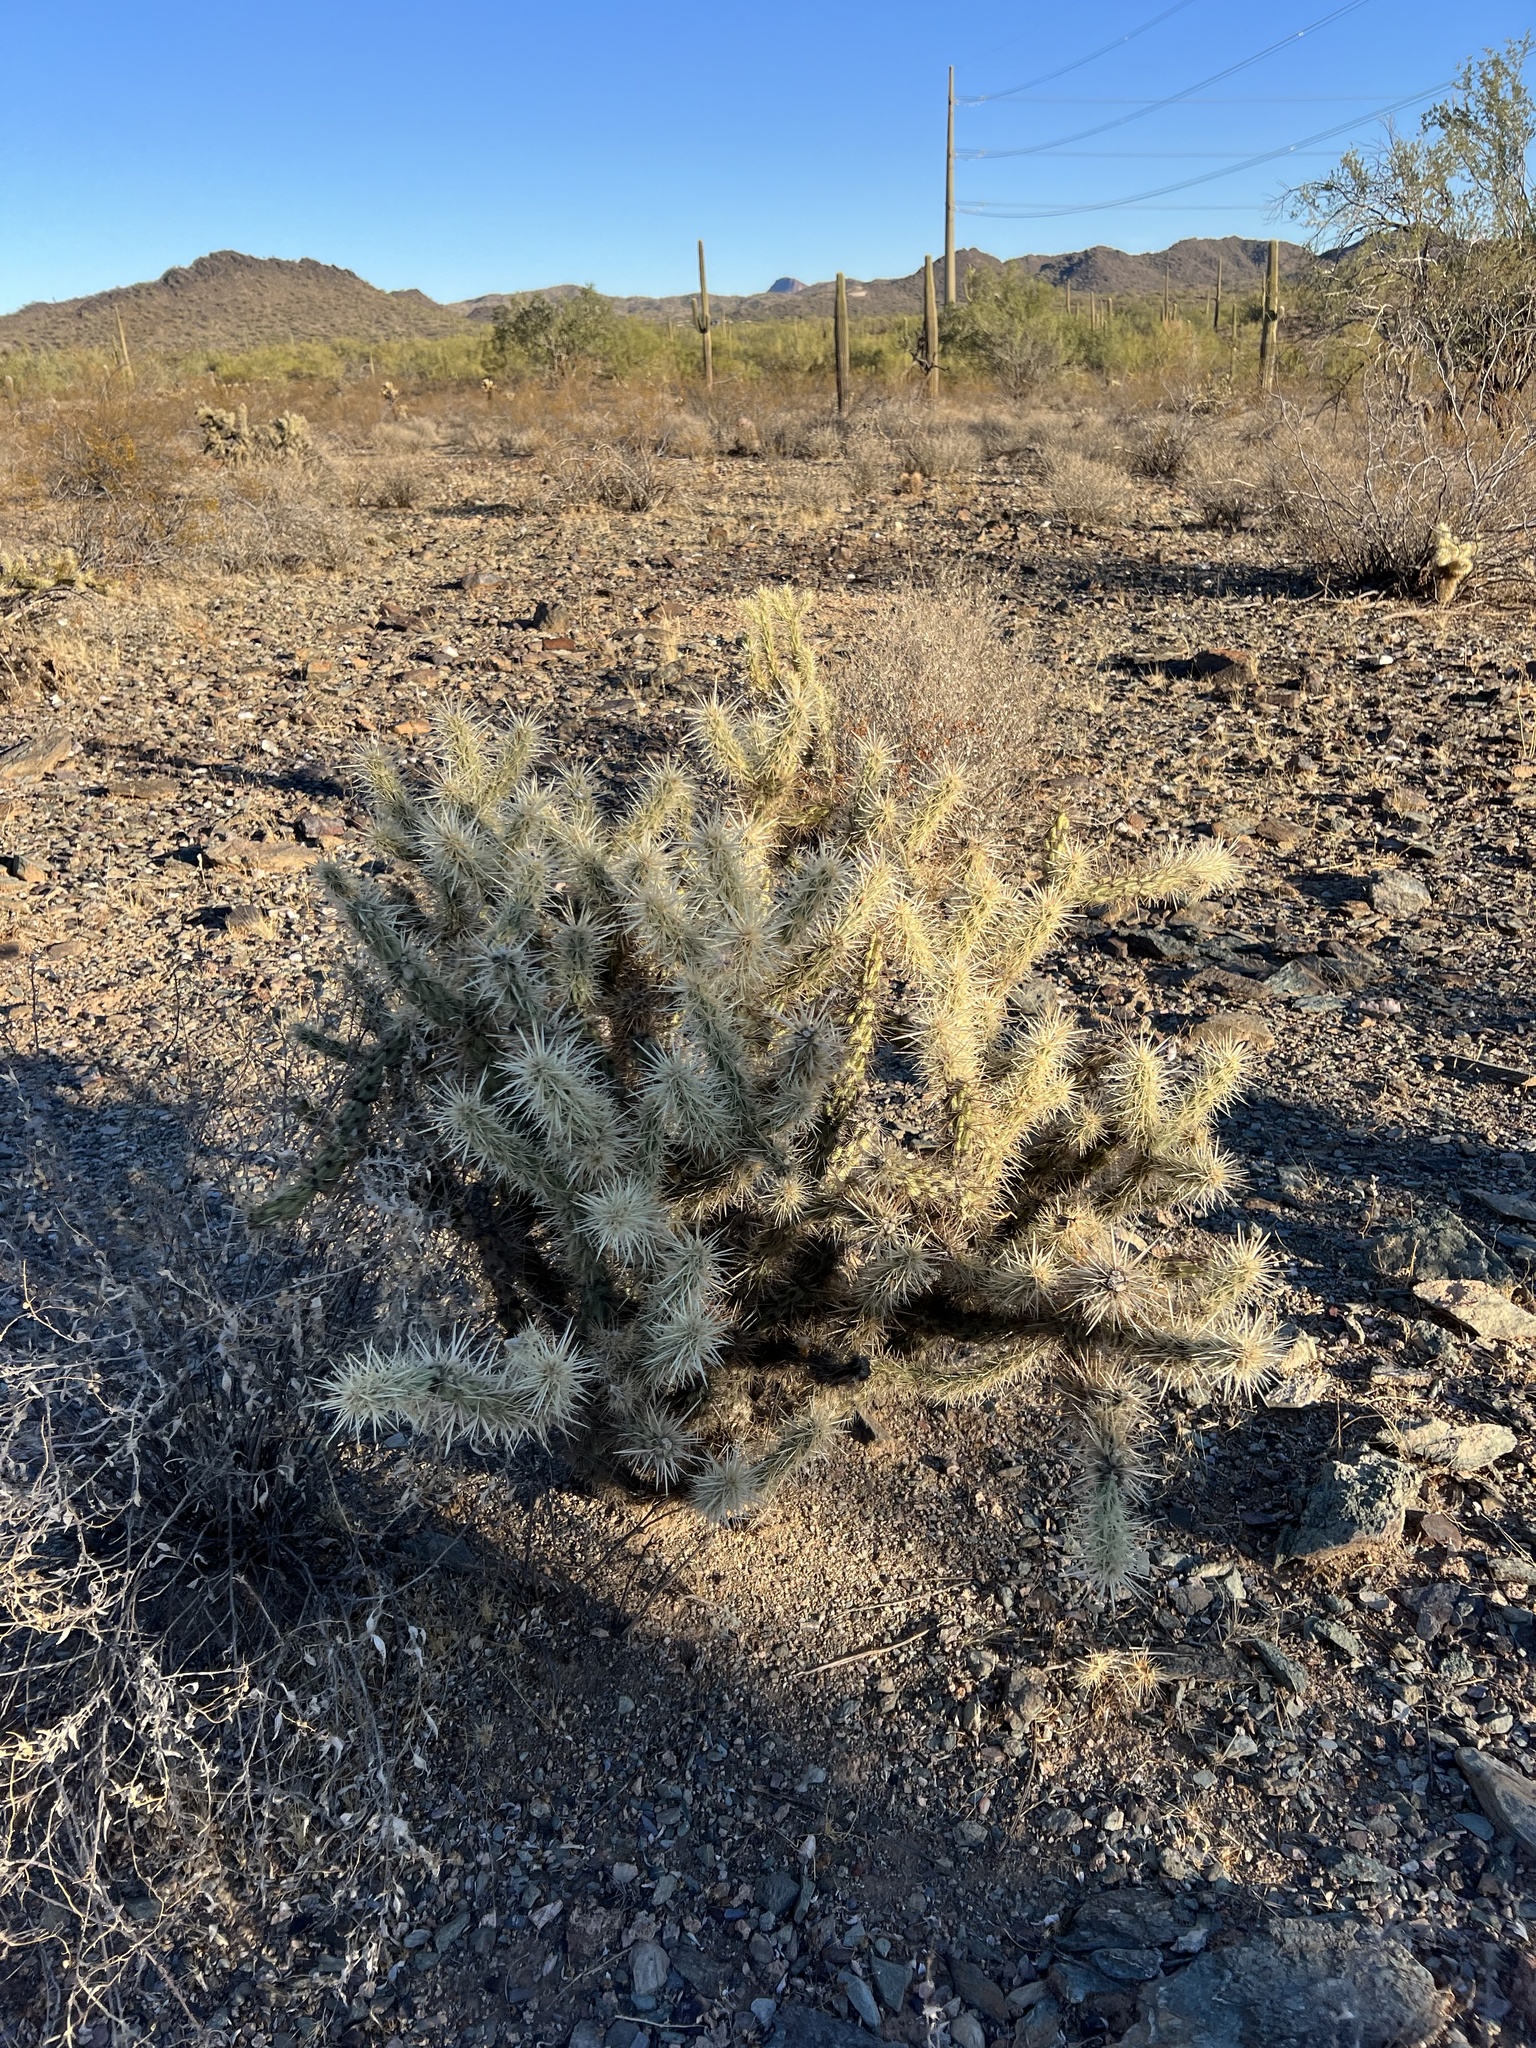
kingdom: Plantae
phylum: Tracheophyta
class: Magnoliopsida
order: Caryophyllales
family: Cactaceae
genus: Cylindropuntia
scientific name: Cylindropuntia acanthocarpa
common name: Buckhorn cholla
